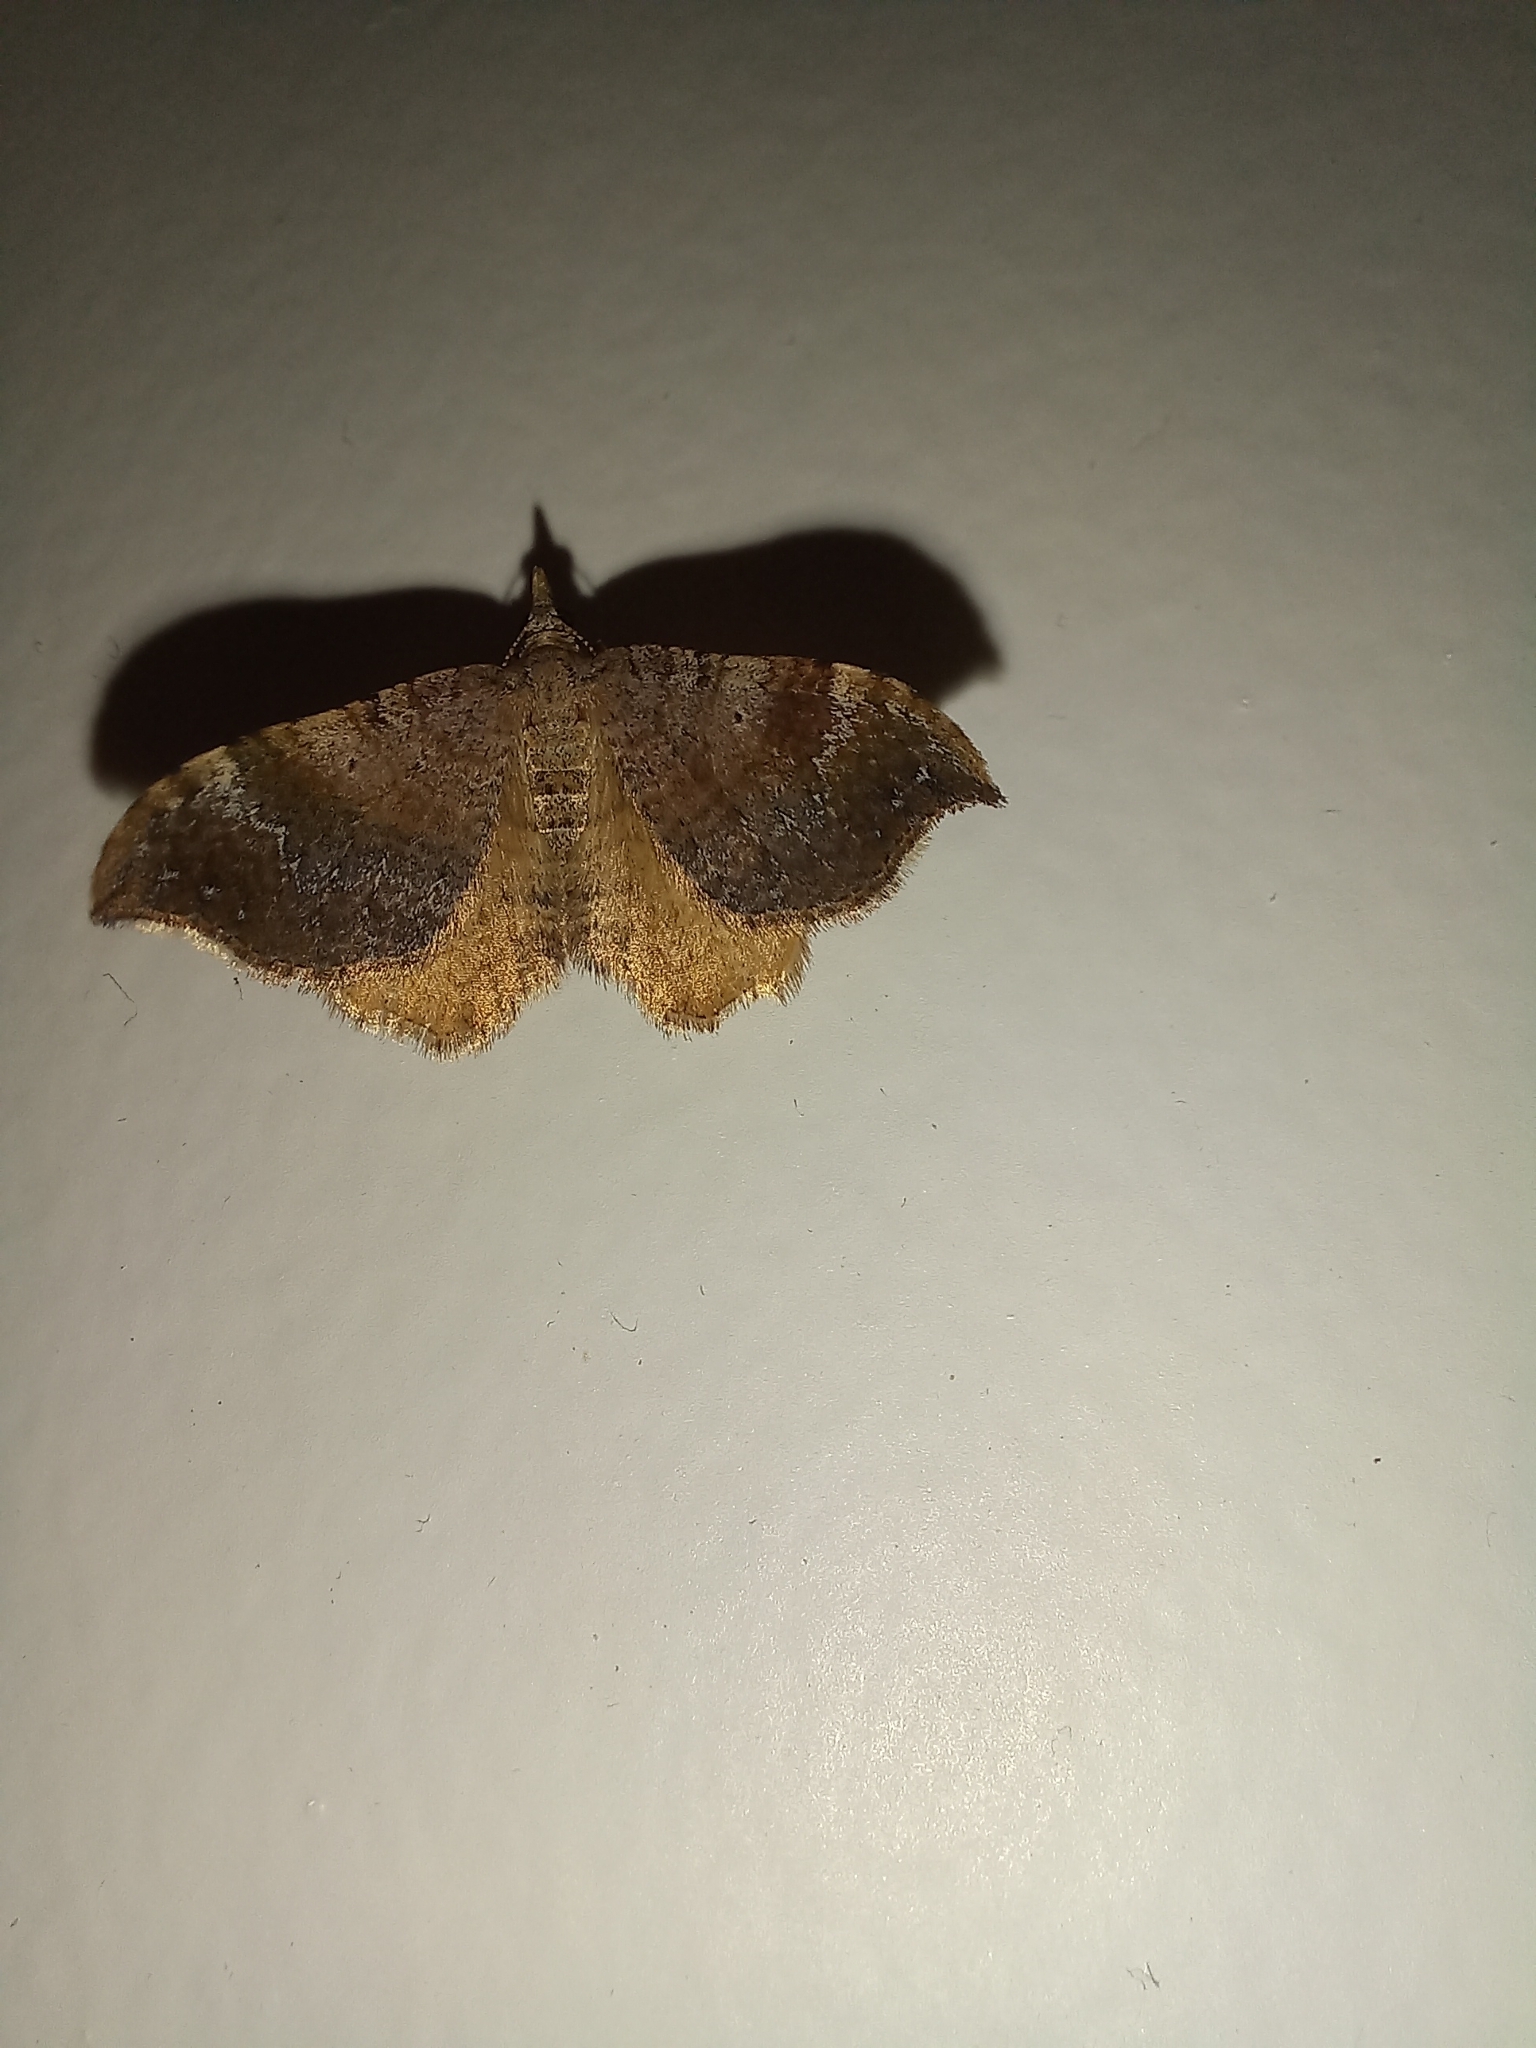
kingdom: Animalia
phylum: Arthropoda
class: Insecta
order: Lepidoptera
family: Geometridae
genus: Homodotis
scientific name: Homodotis megaspilata
